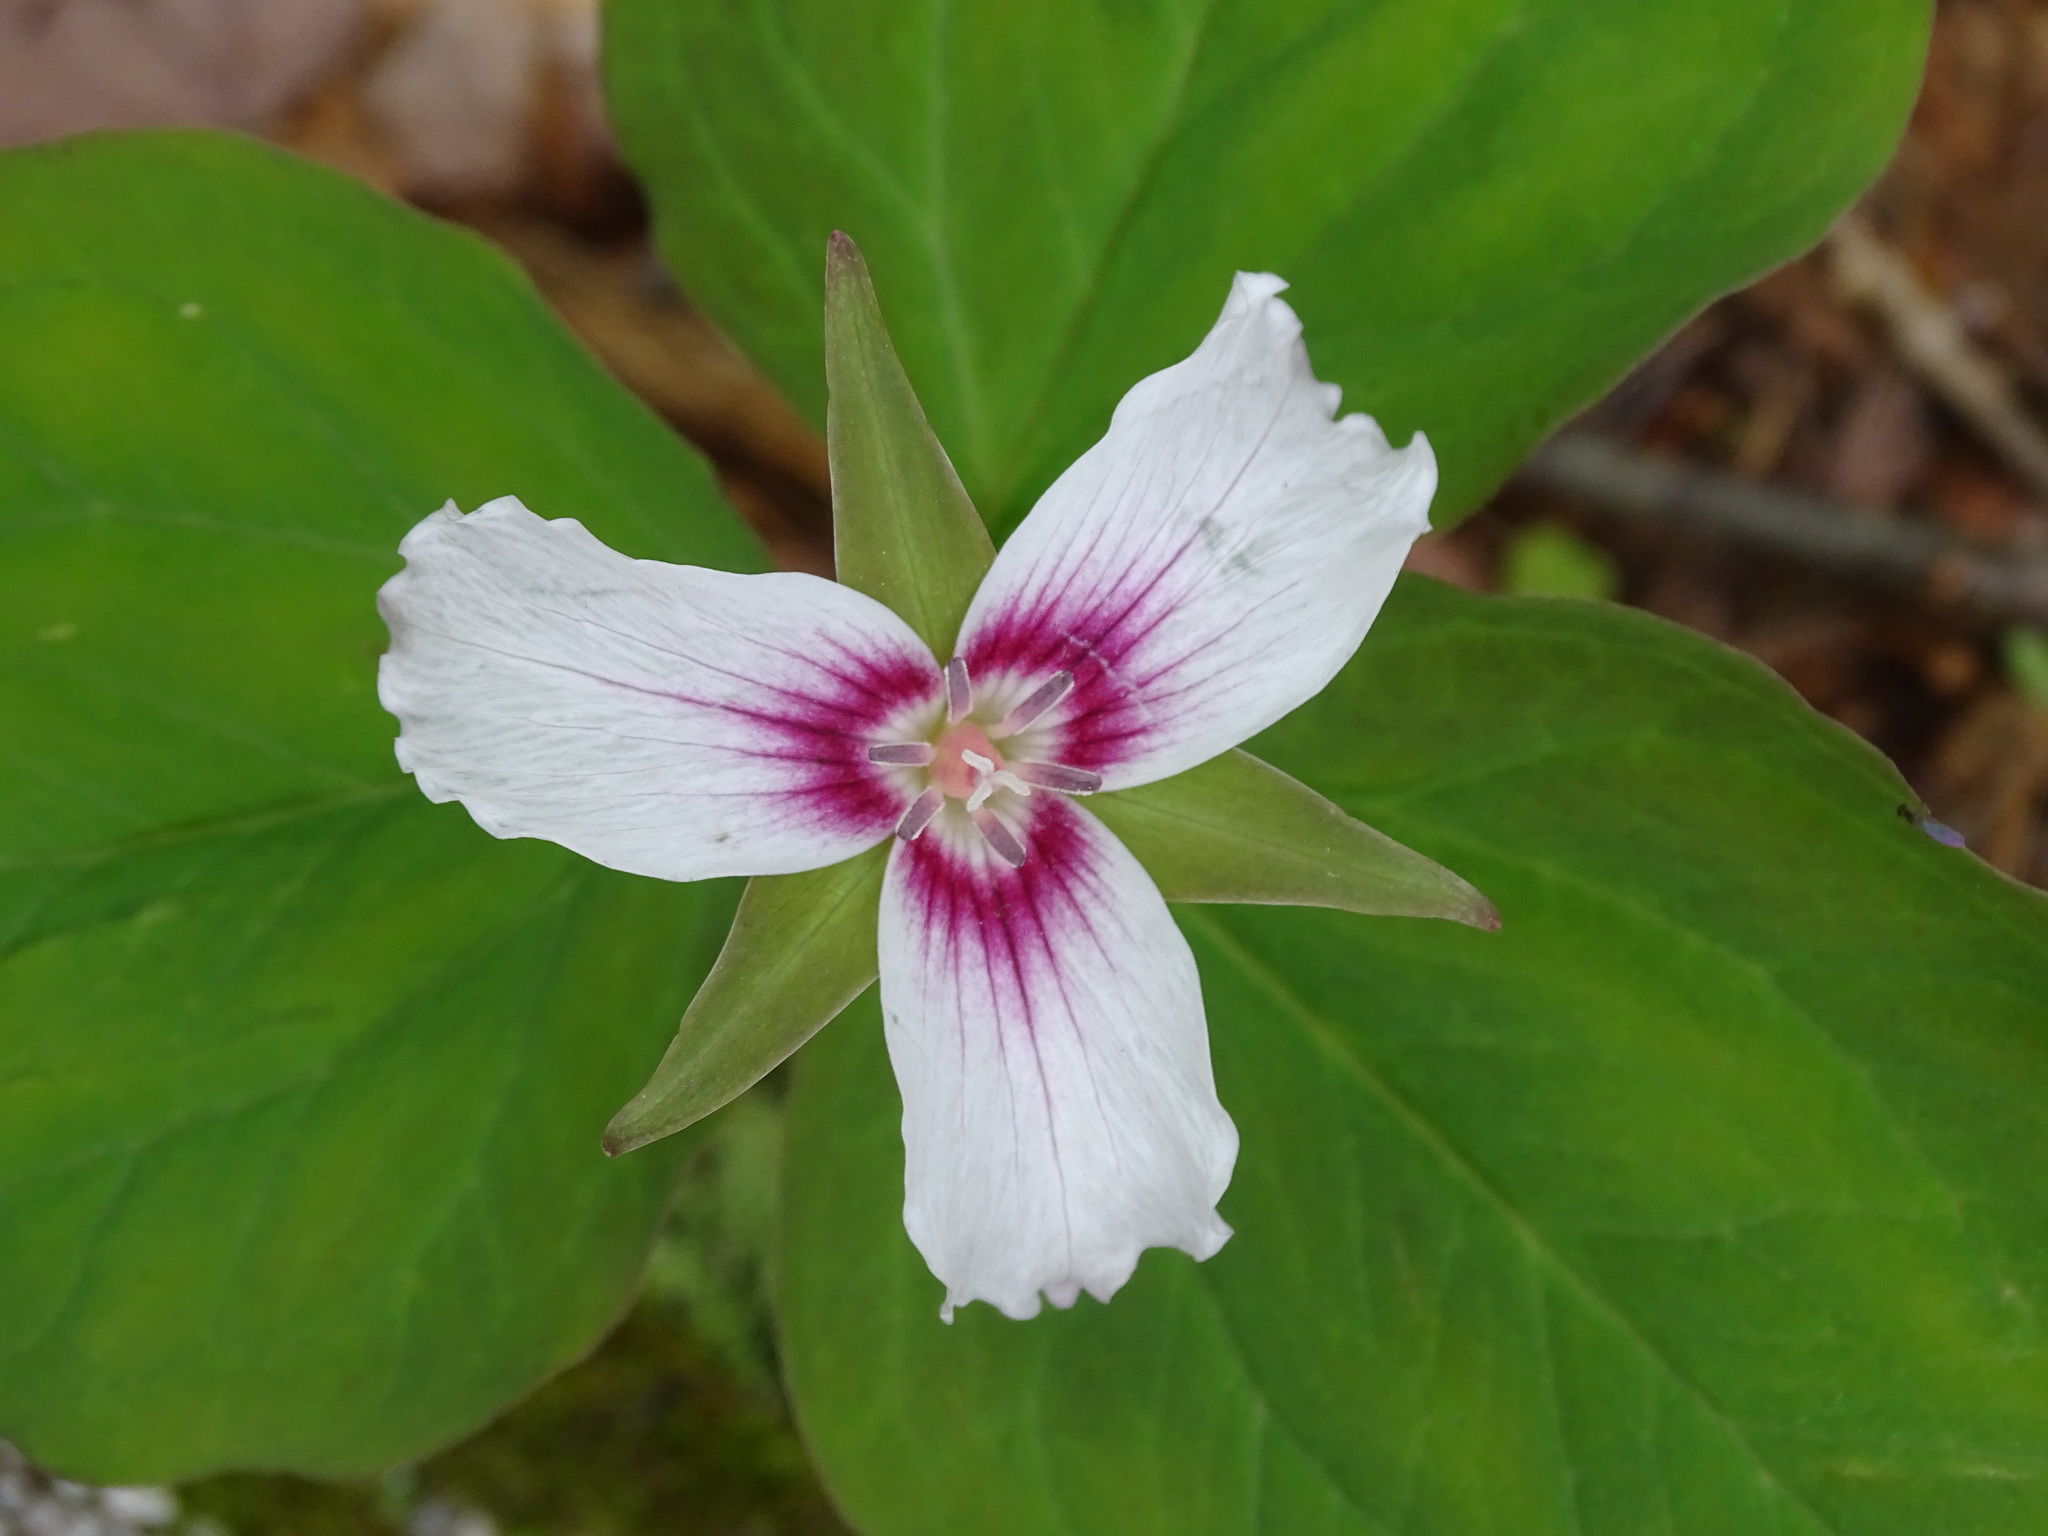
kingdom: Plantae
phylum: Tracheophyta
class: Liliopsida
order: Liliales
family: Melanthiaceae
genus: Trillium
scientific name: Trillium undulatum
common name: Paint trillium
